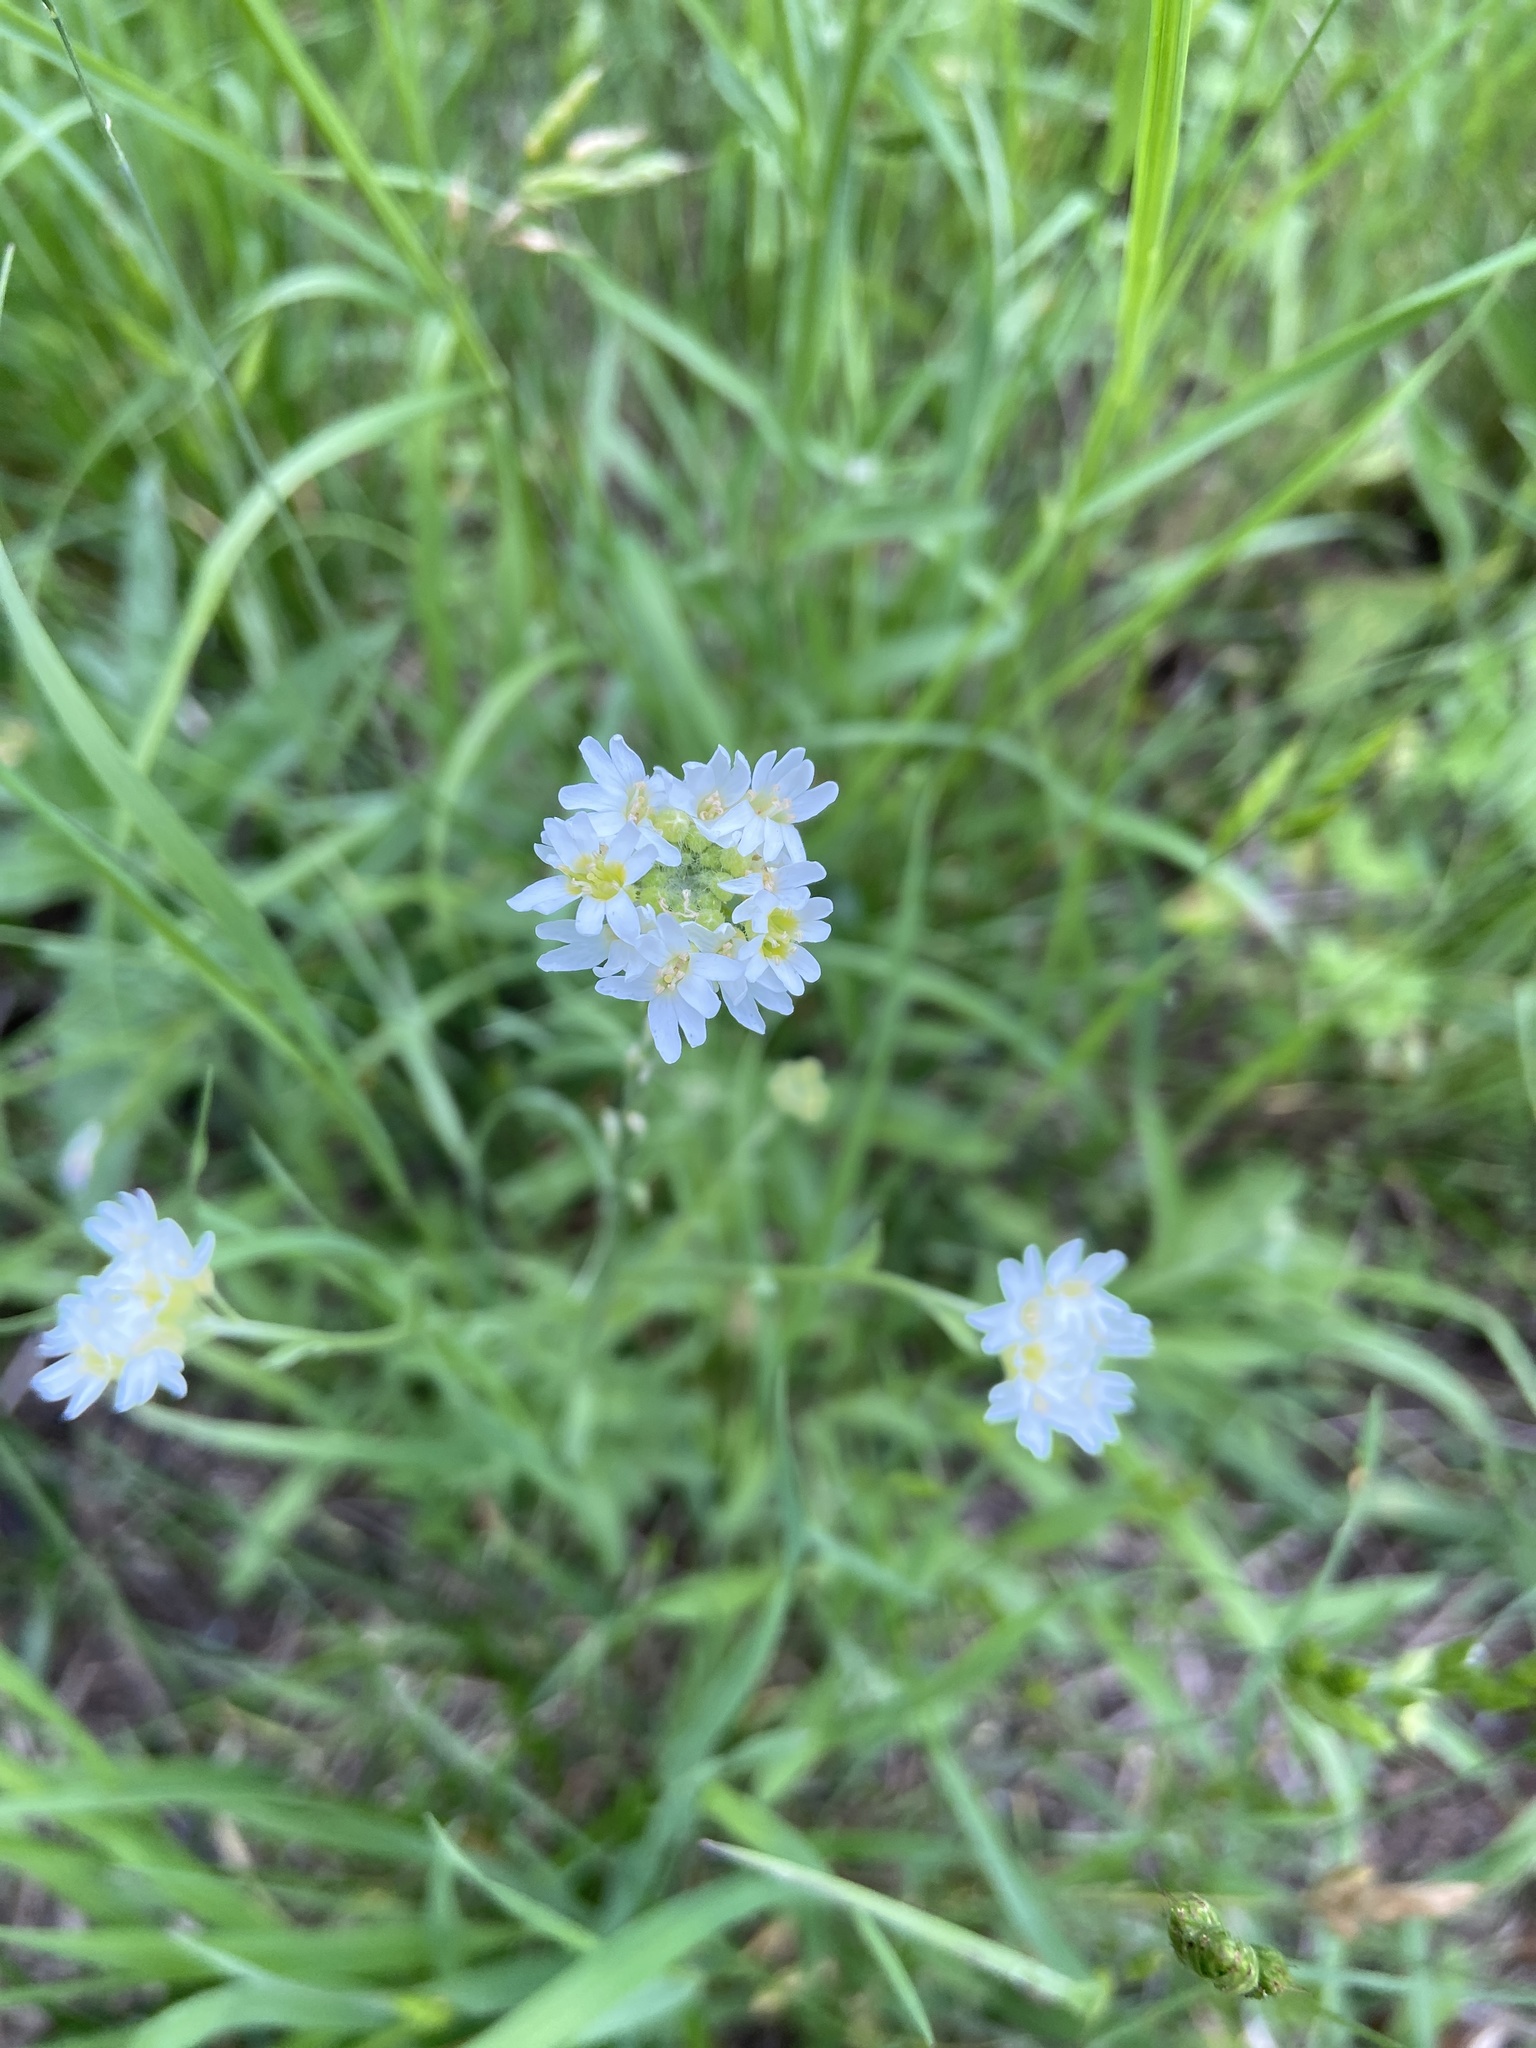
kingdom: Plantae
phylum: Tracheophyta
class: Magnoliopsida
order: Brassicales
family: Brassicaceae
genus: Berteroa
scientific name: Berteroa incana
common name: Hoary alison
